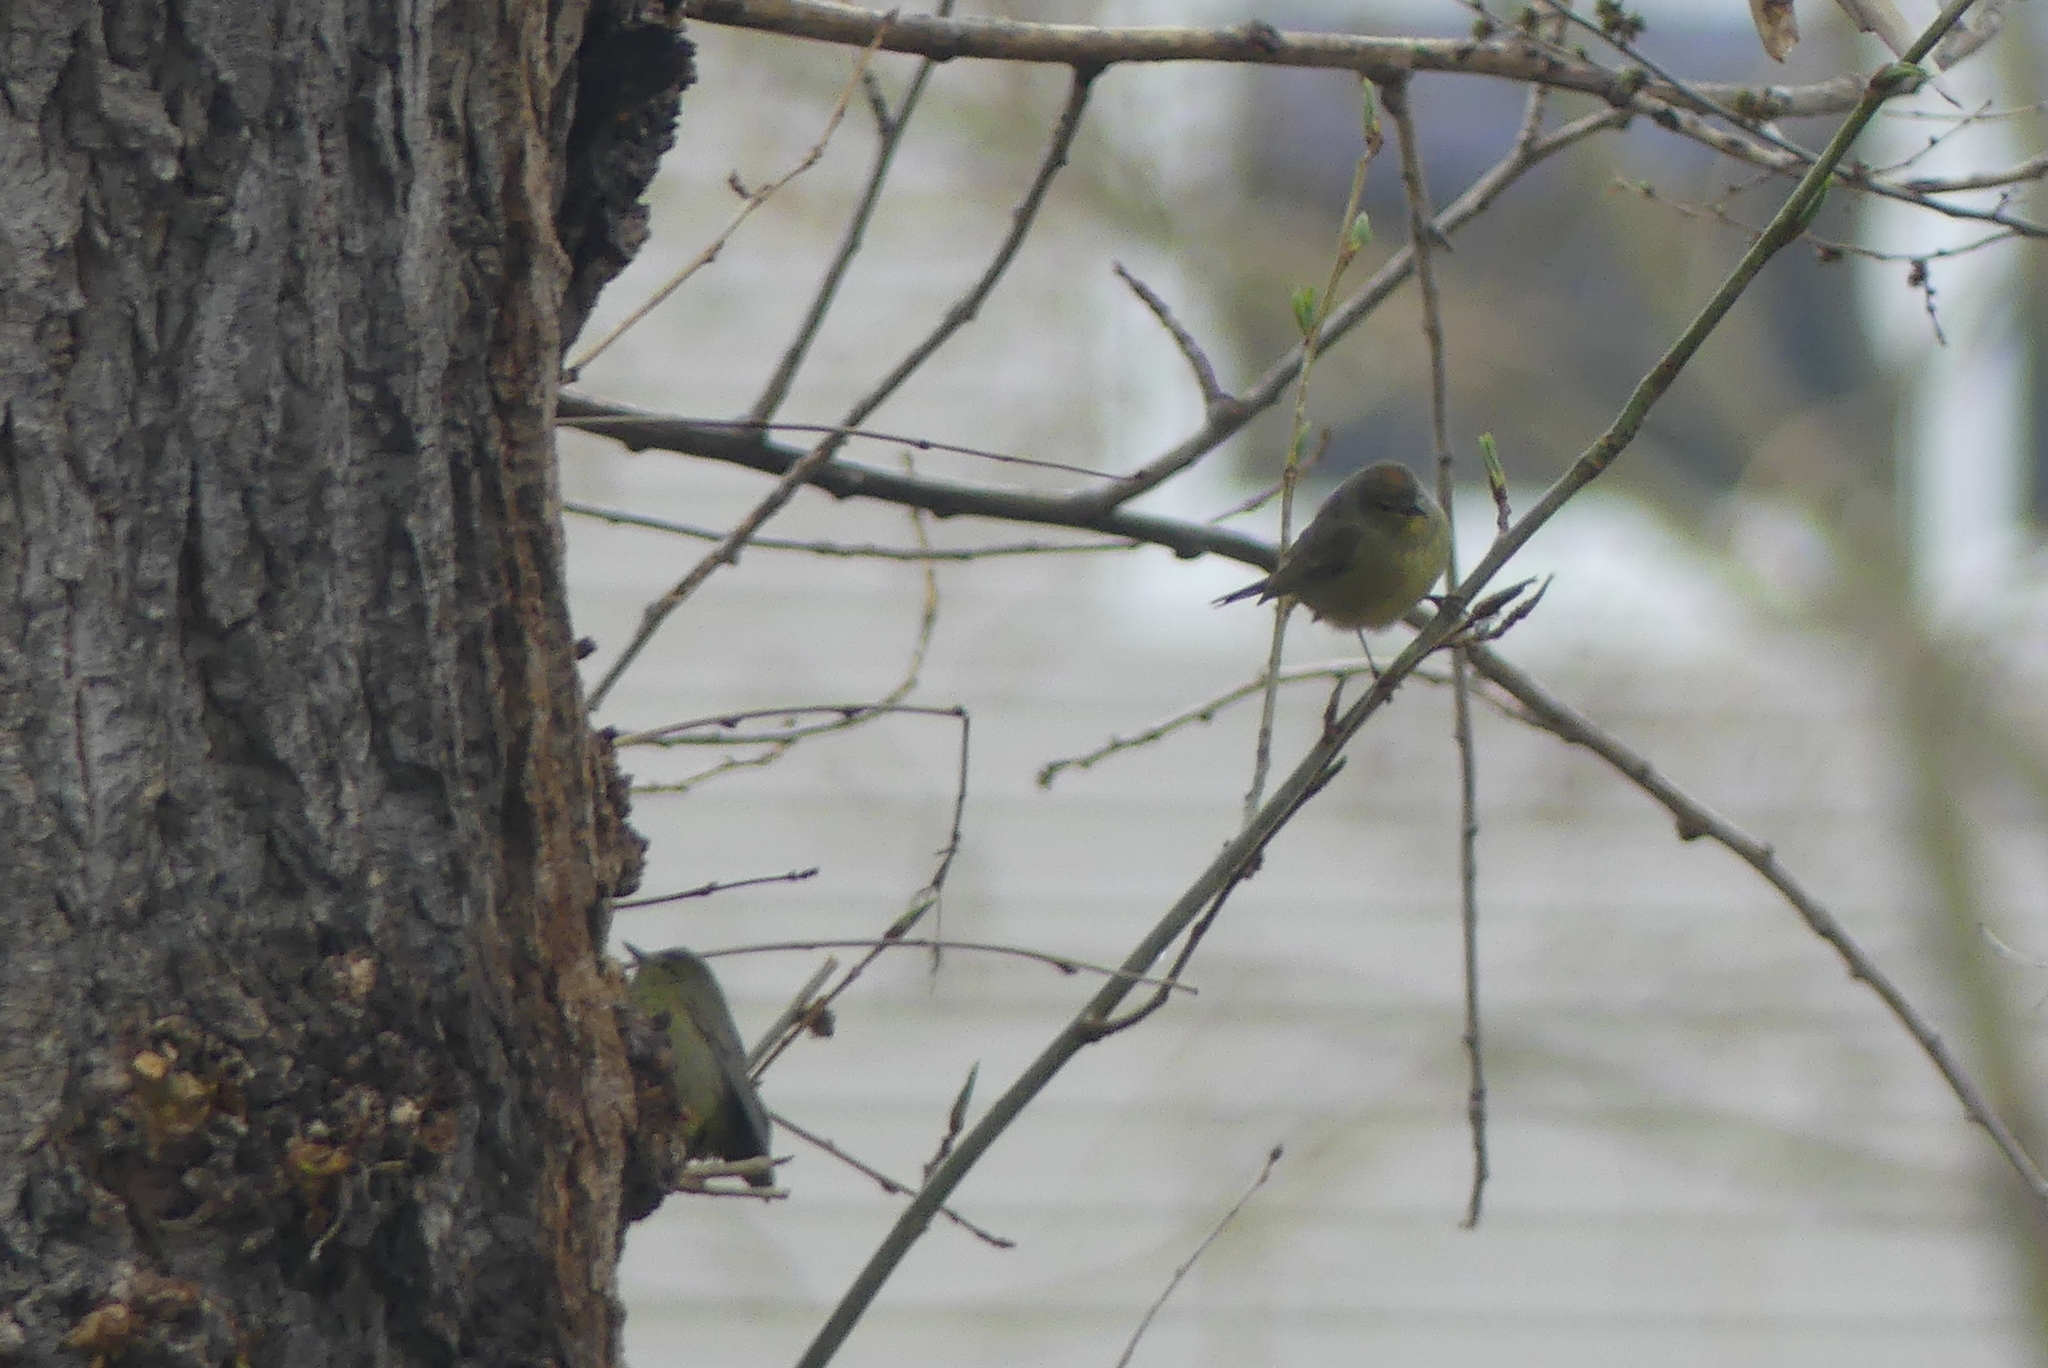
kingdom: Animalia
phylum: Chordata
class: Aves
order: Passeriformes
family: Parulidae
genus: Leiothlypis
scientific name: Leiothlypis celata
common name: Orange-crowned warbler
